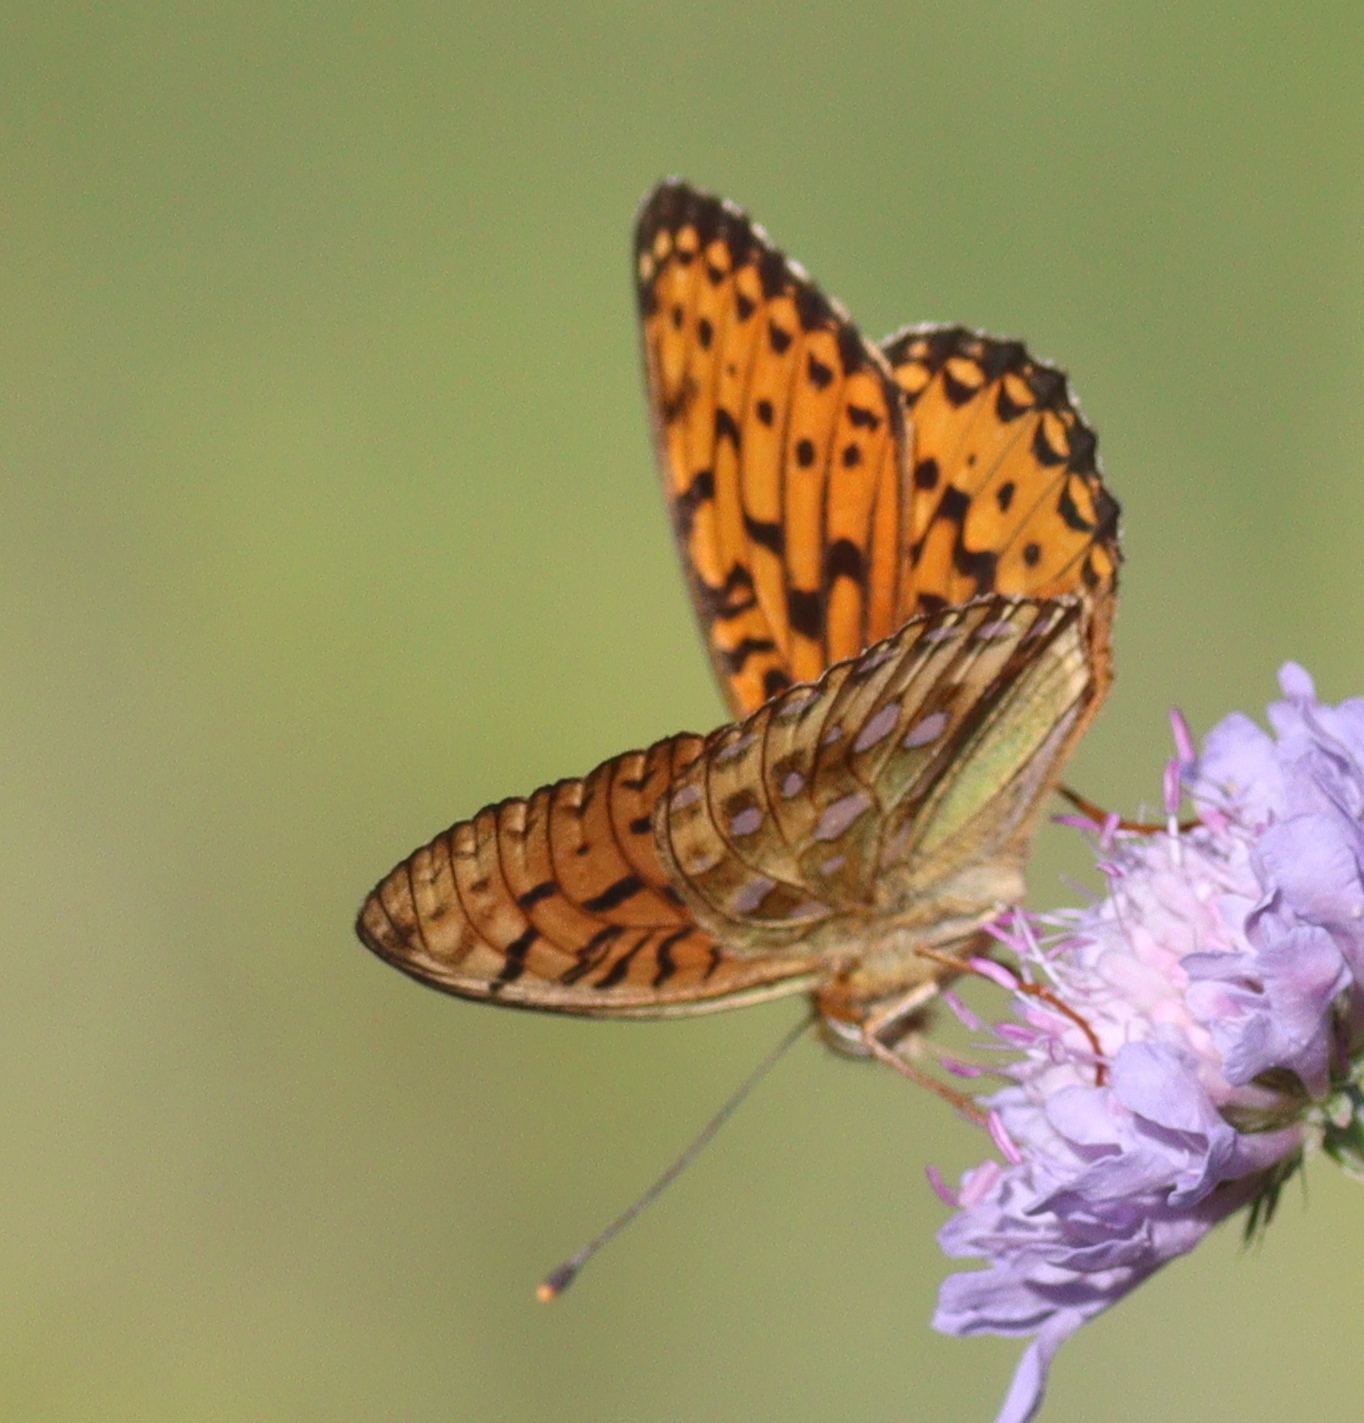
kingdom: Animalia
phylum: Arthropoda
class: Insecta
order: Lepidoptera
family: Nymphalidae
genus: Speyeria
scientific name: Speyeria aglaja
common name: Dark green fritillary
